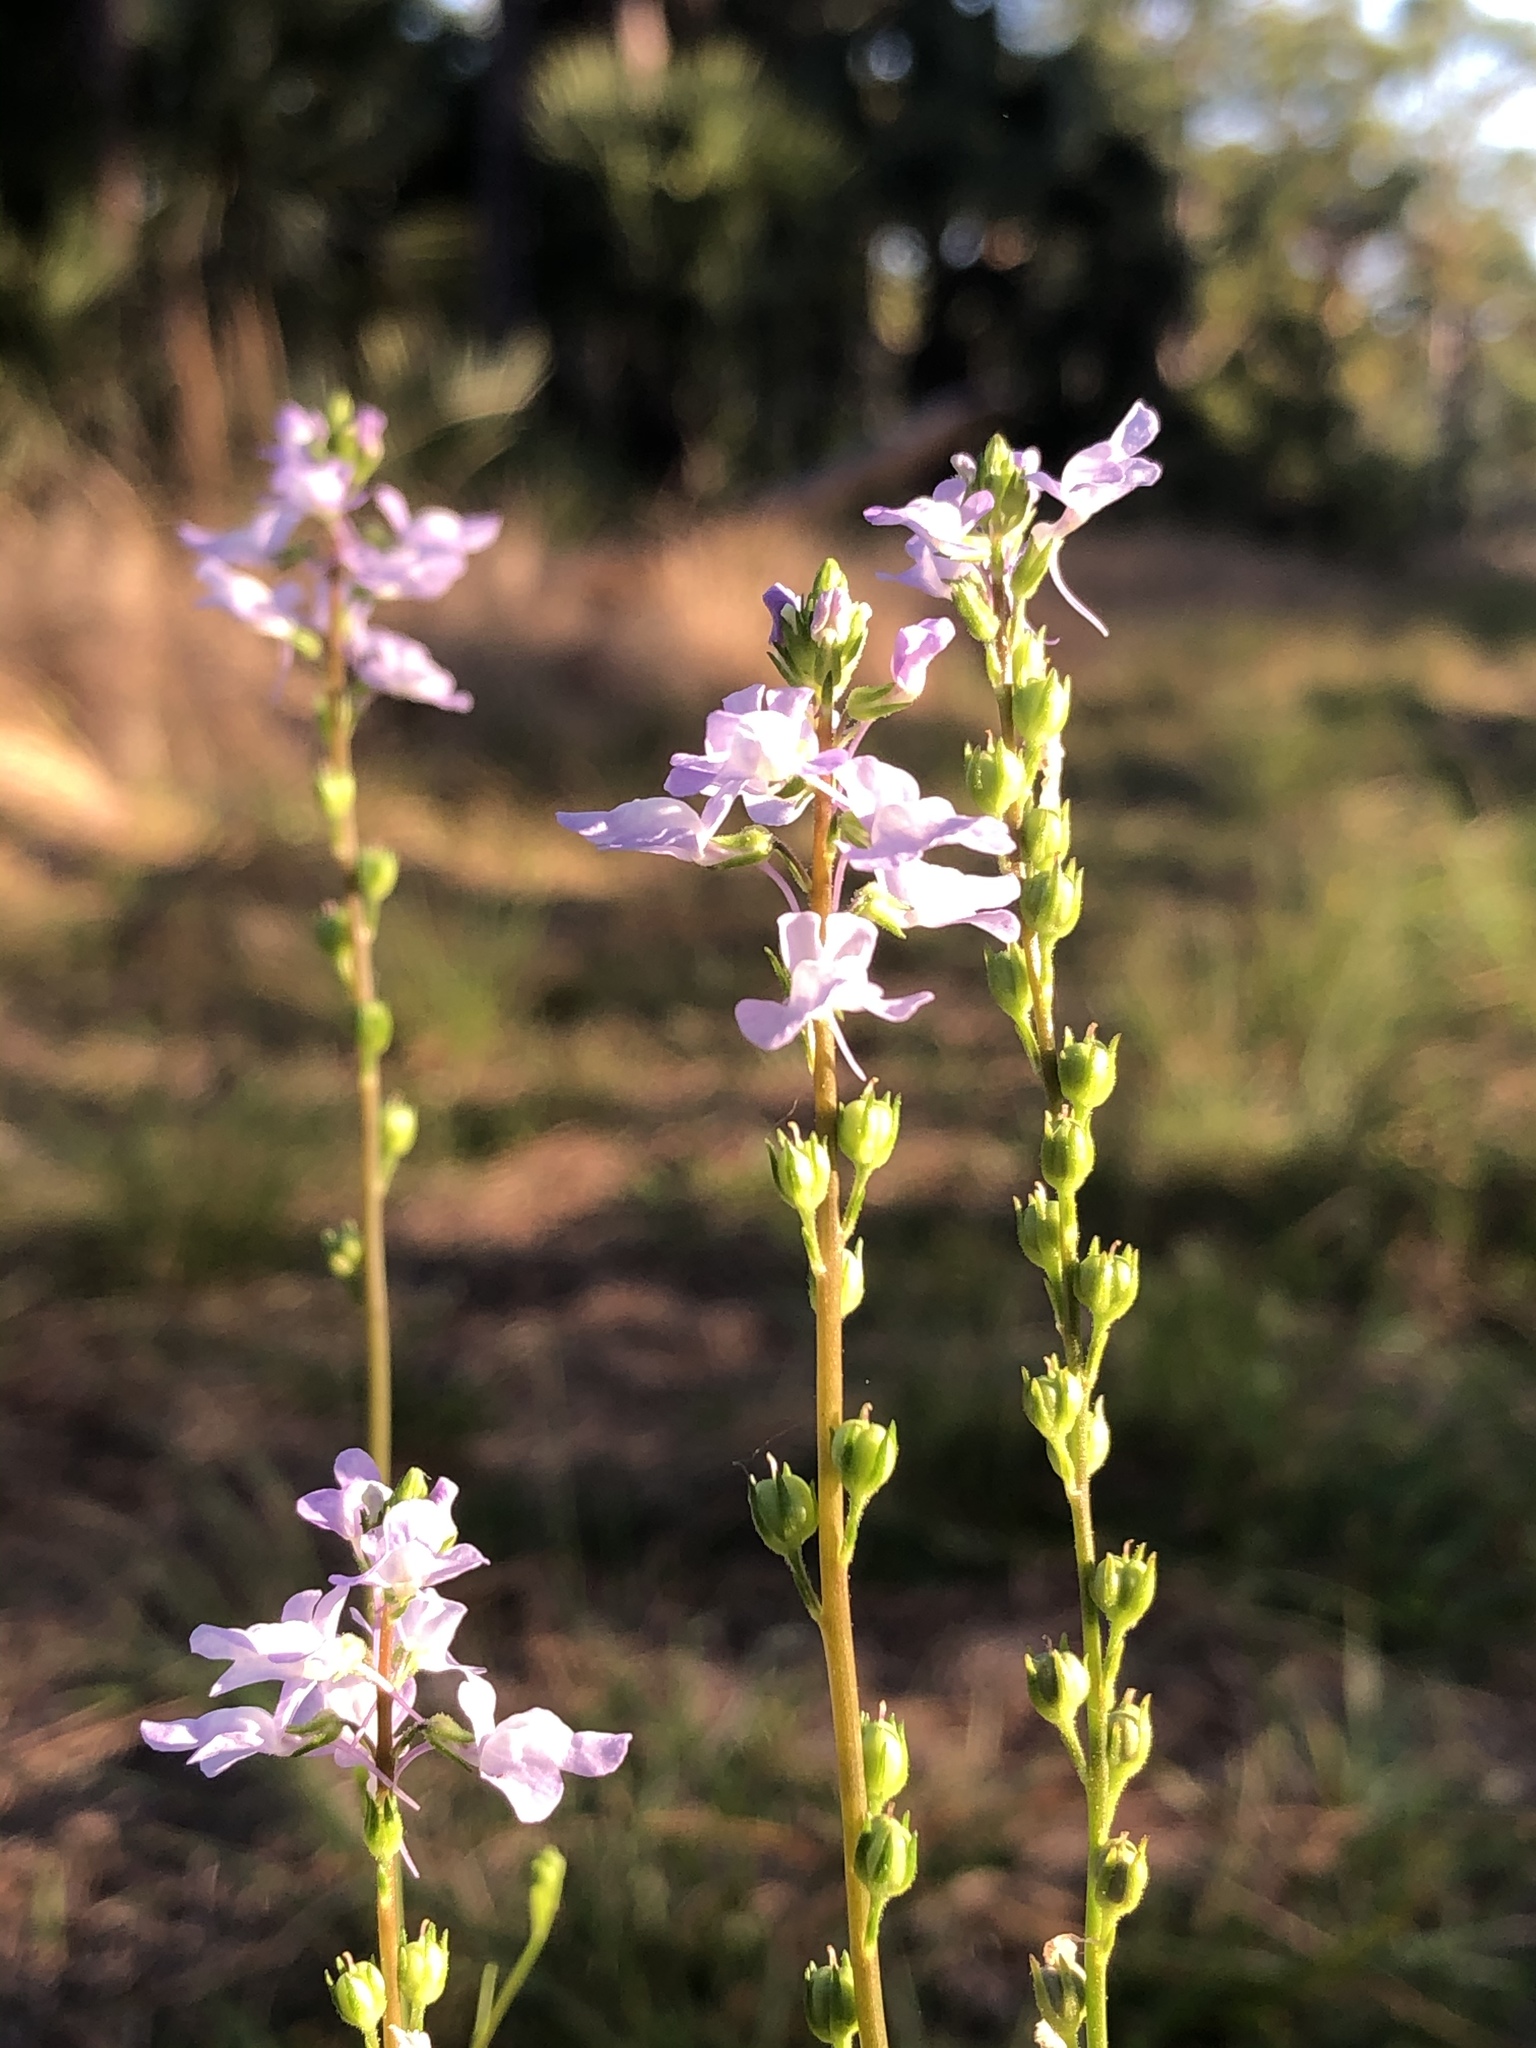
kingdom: Plantae
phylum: Tracheophyta
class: Magnoliopsida
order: Lamiales
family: Plantaginaceae
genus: Nuttallanthus
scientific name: Nuttallanthus canadensis
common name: Blue toadflax
